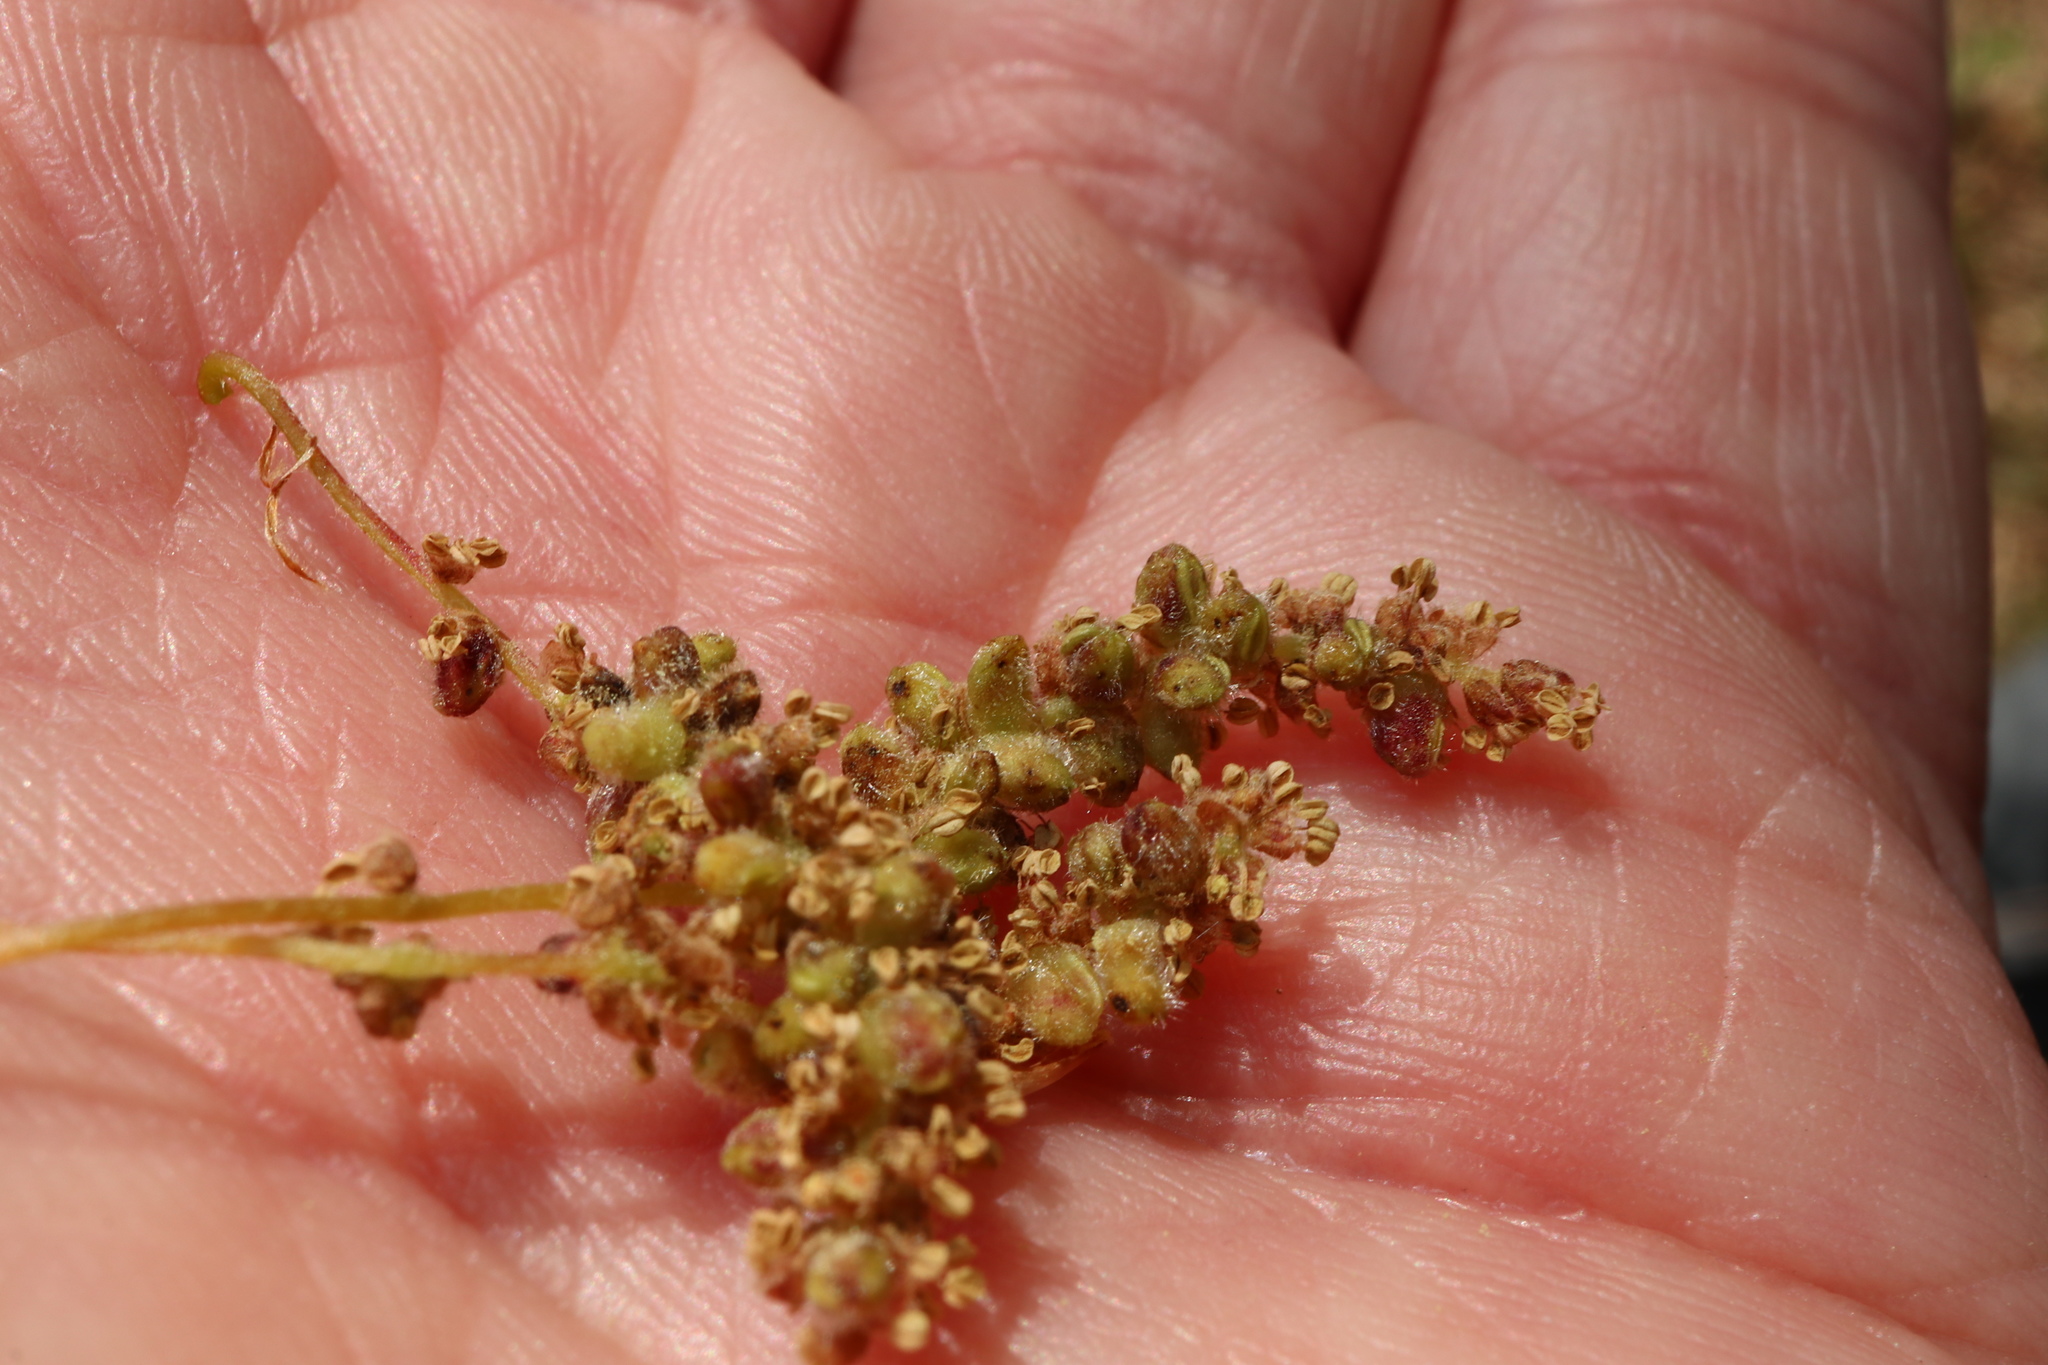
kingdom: Animalia
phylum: Arthropoda
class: Insecta
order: Hymenoptera
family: Cynipidae
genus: Andricus
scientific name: Andricus cooki
